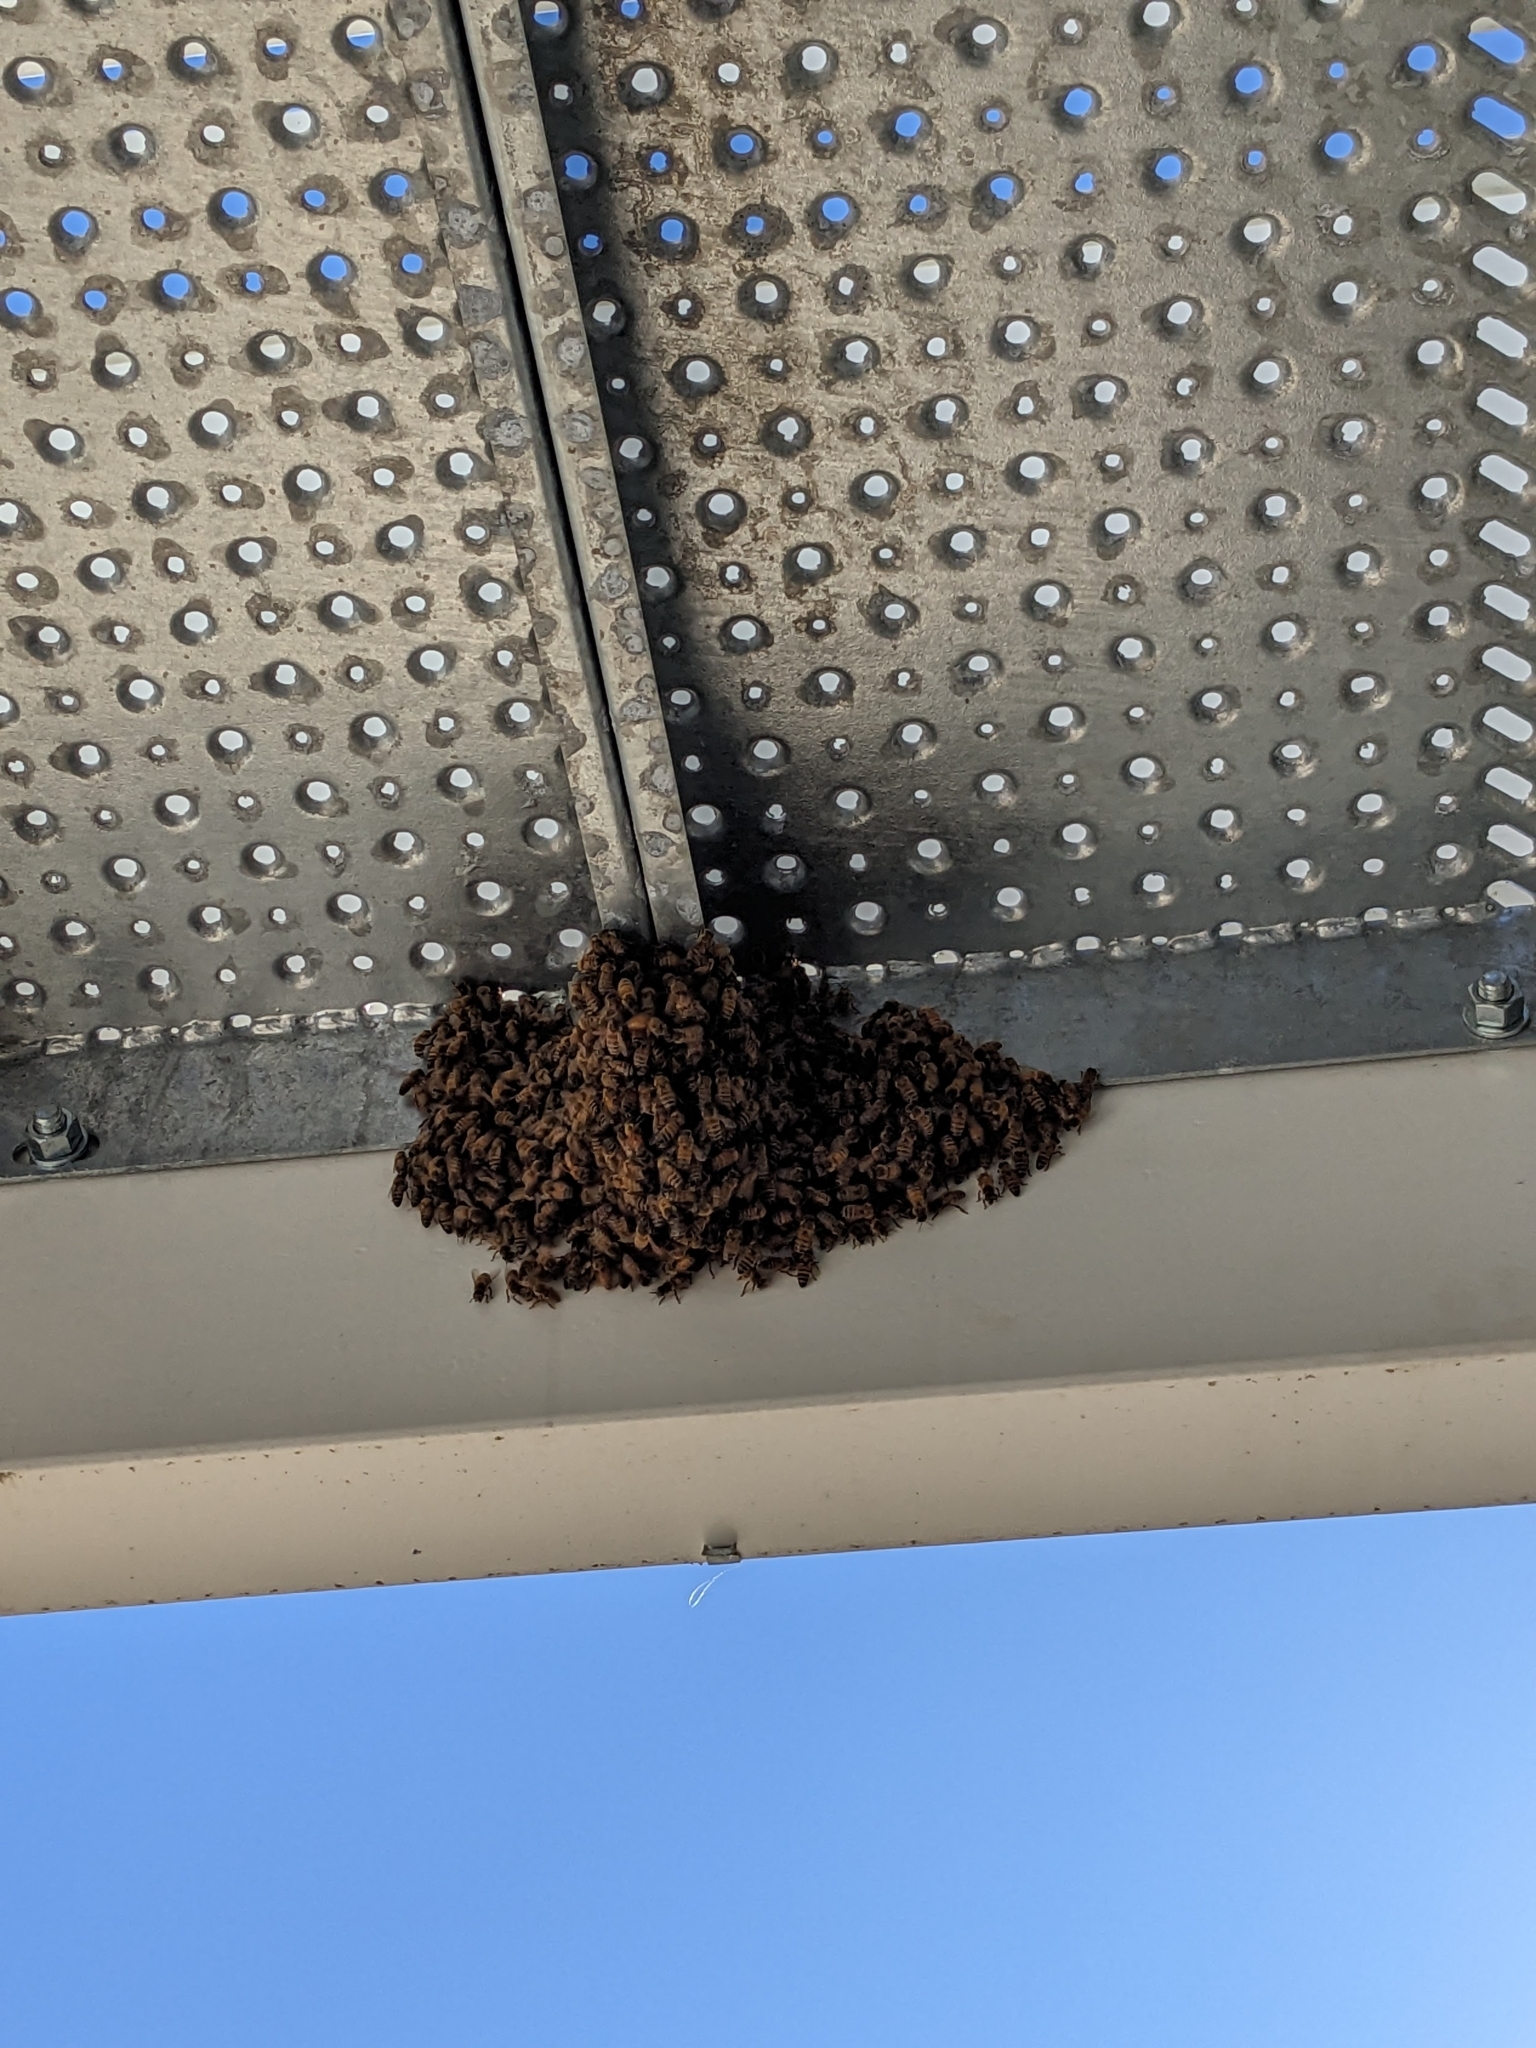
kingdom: Animalia
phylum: Arthropoda
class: Insecta
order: Hymenoptera
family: Apidae
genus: Apis
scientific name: Apis mellifera
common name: Honey bee
